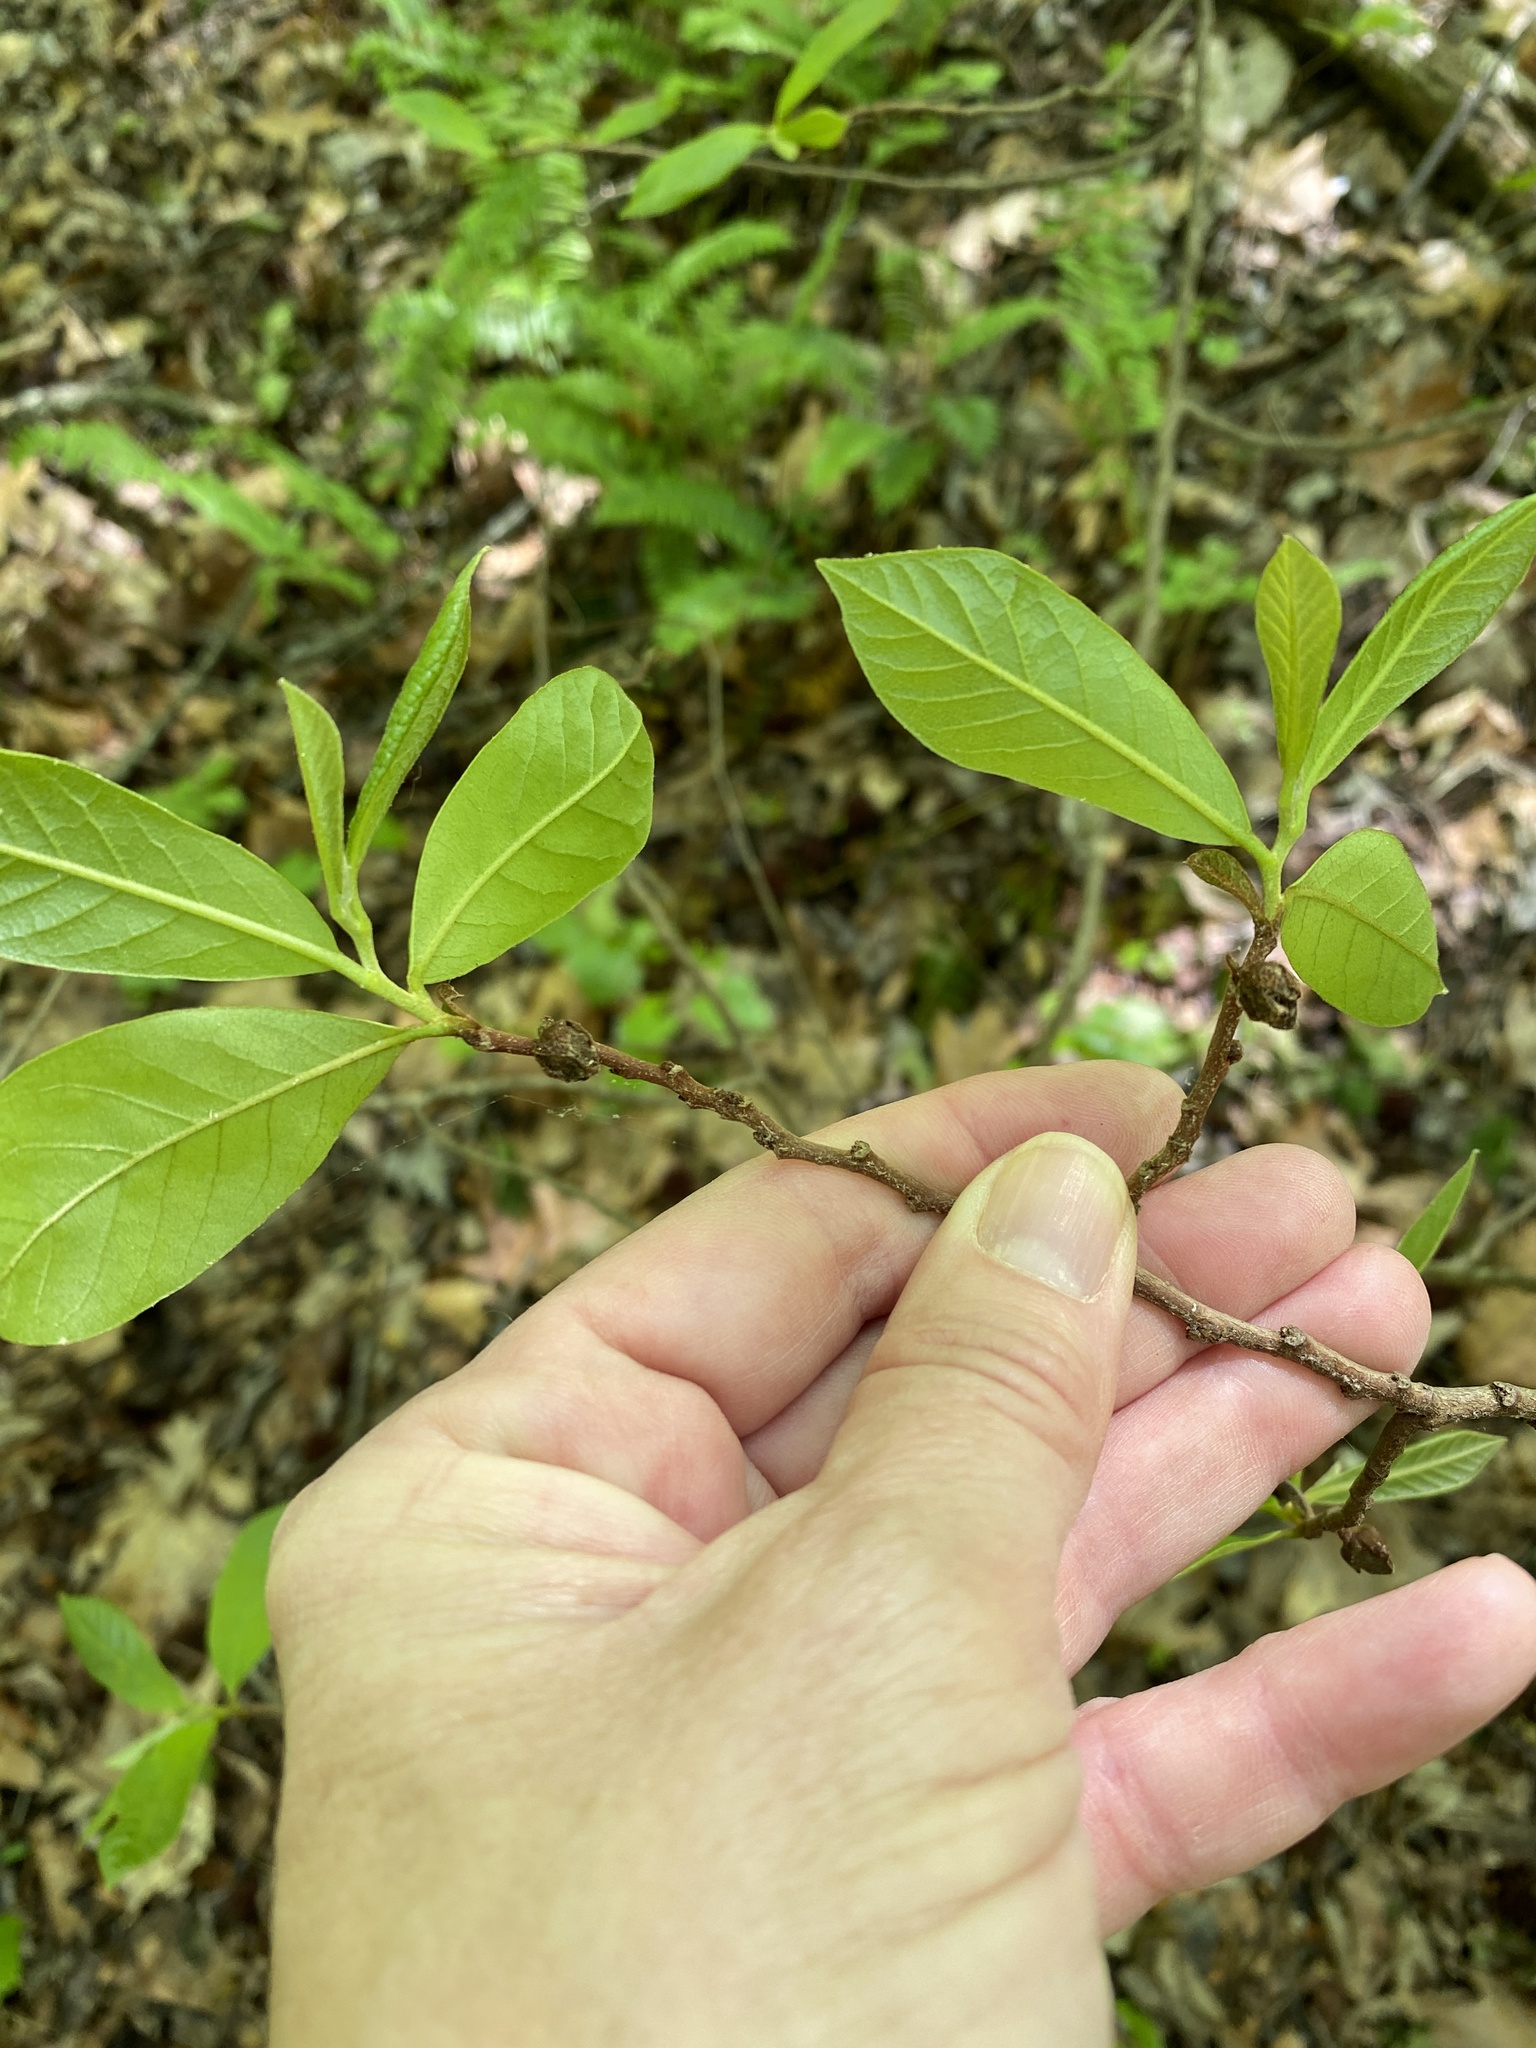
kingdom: Plantae
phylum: Tracheophyta
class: Magnoliopsida
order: Magnoliales
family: Annonaceae
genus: Asimina
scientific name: Asimina parviflora
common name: Dwarf pawpaw
